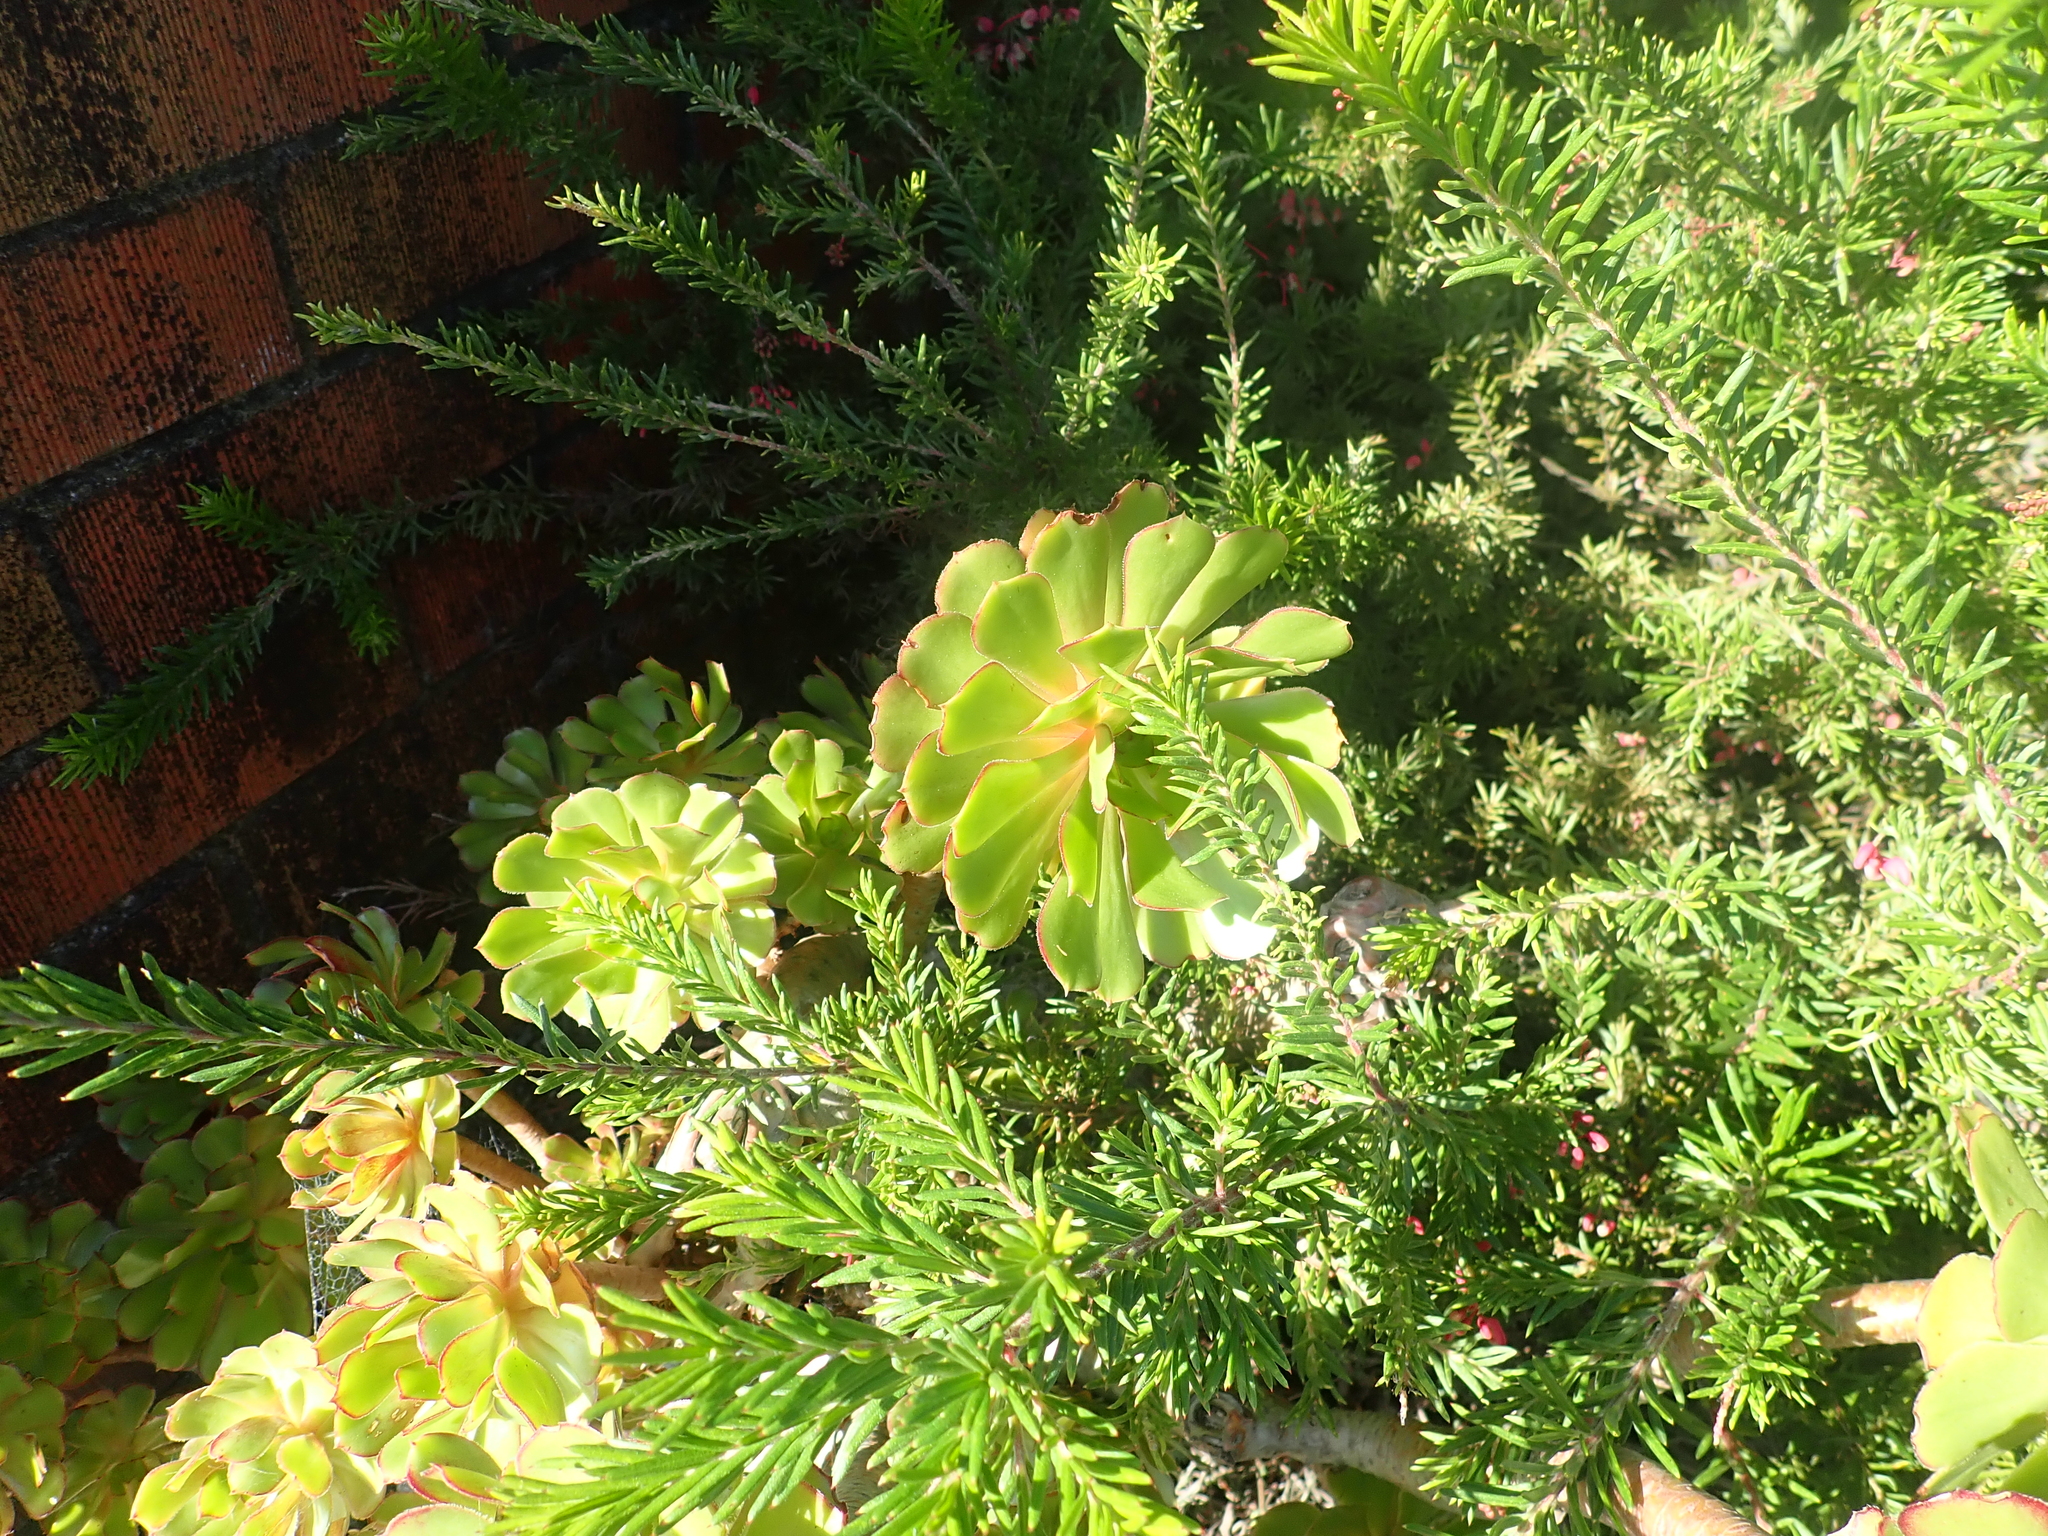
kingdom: Plantae
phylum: Tracheophyta
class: Magnoliopsida
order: Saxifragales
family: Crassulaceae
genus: Aeonium
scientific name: Aeonium arboreum
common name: Tree aeonium
